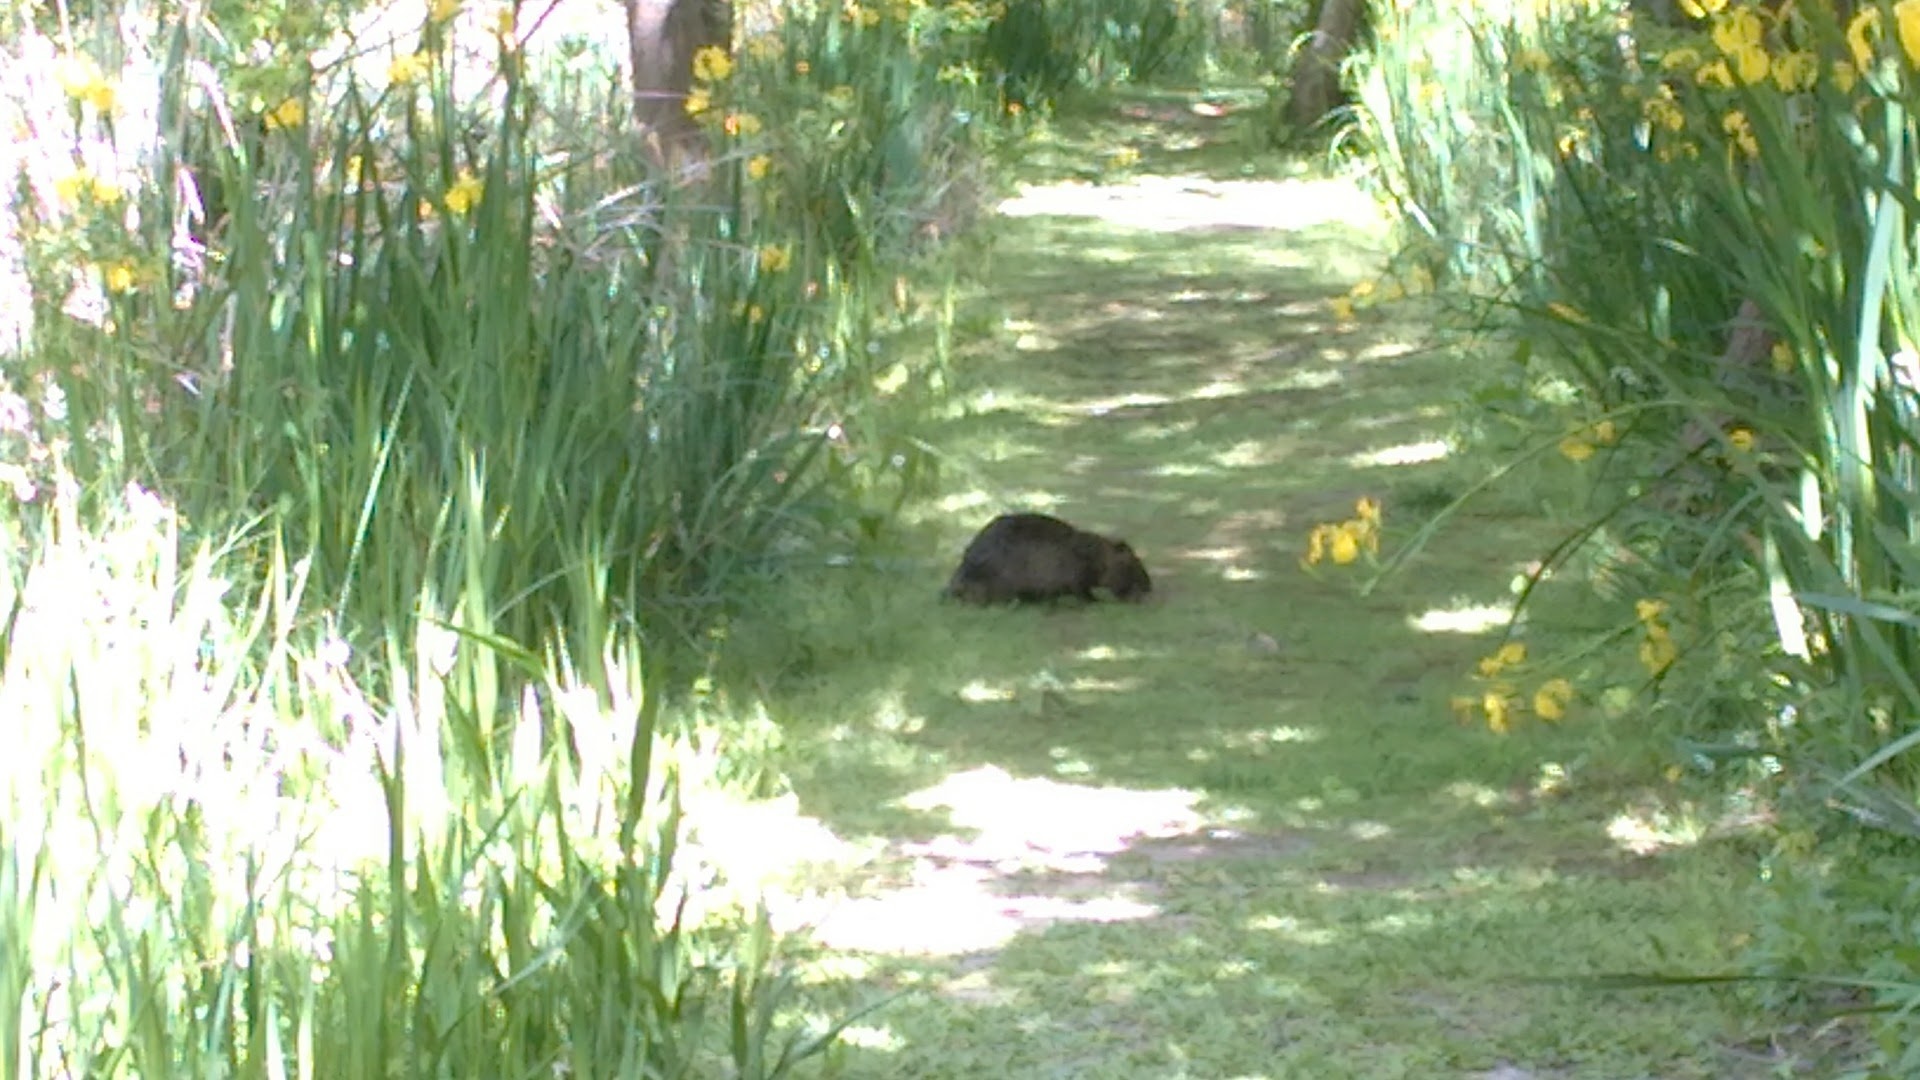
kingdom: Animalia
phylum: Chordata
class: Mammalia
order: Rodentia
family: Myocastoridae
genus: Myocastor
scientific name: Myocastor coypus
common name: Coypu
